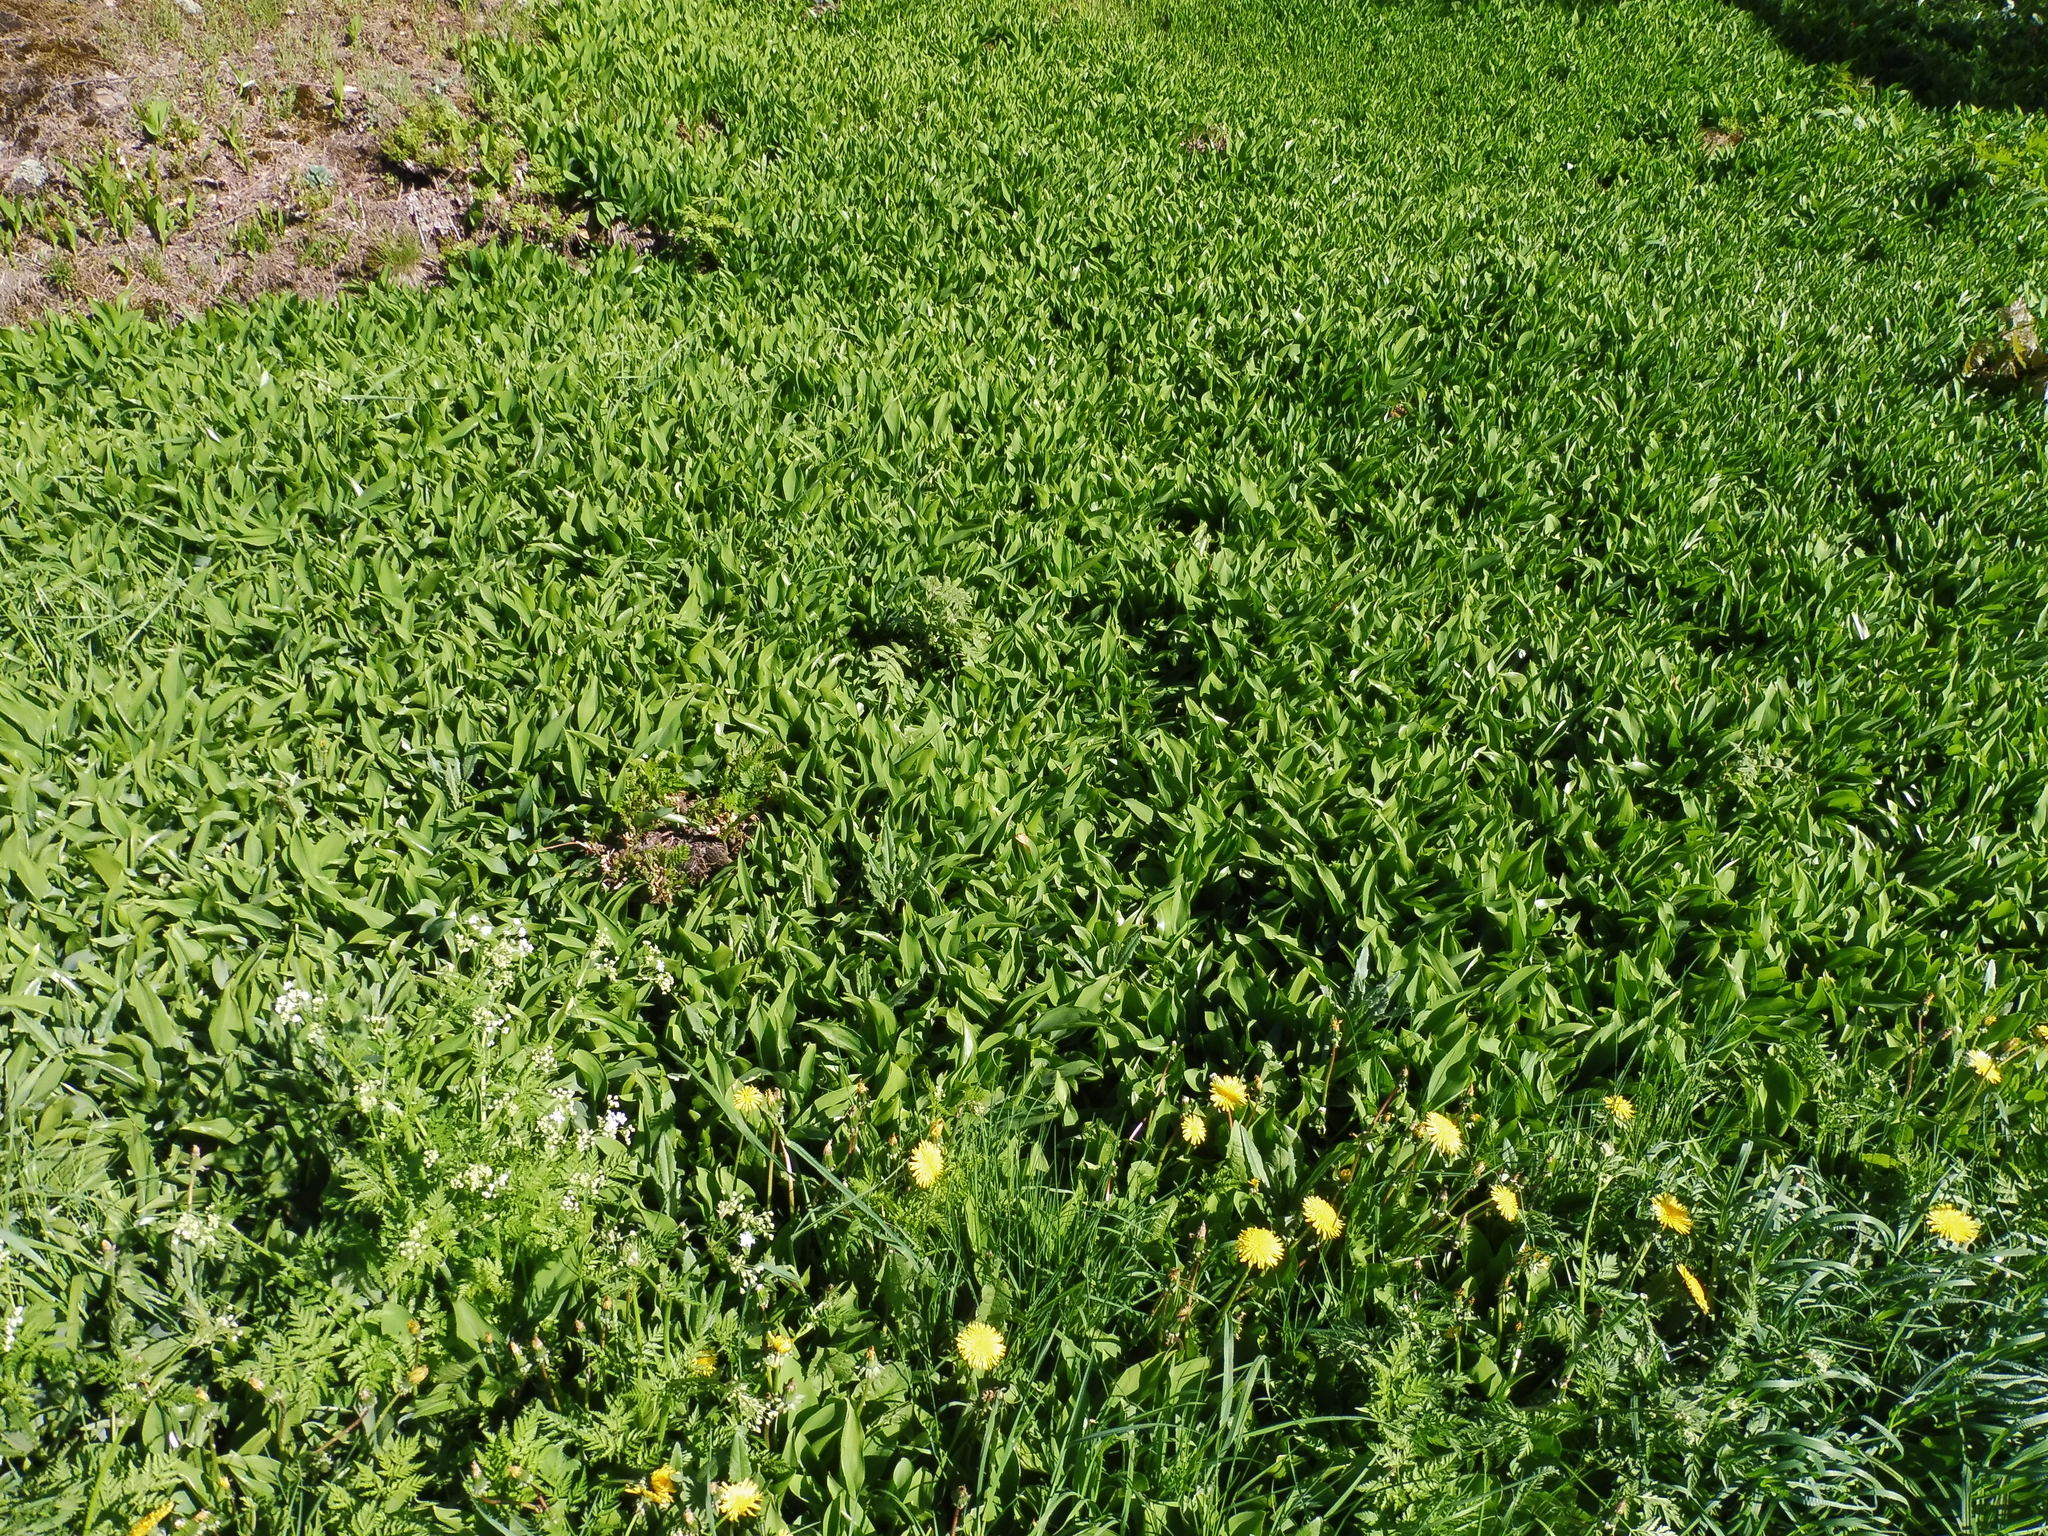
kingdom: Plantae
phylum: Tracheophyta
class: Liliopsida
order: Asparagales
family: Asparagaceae
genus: Convallaria
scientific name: Convallaria majalis
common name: Lily-of-the-valley
